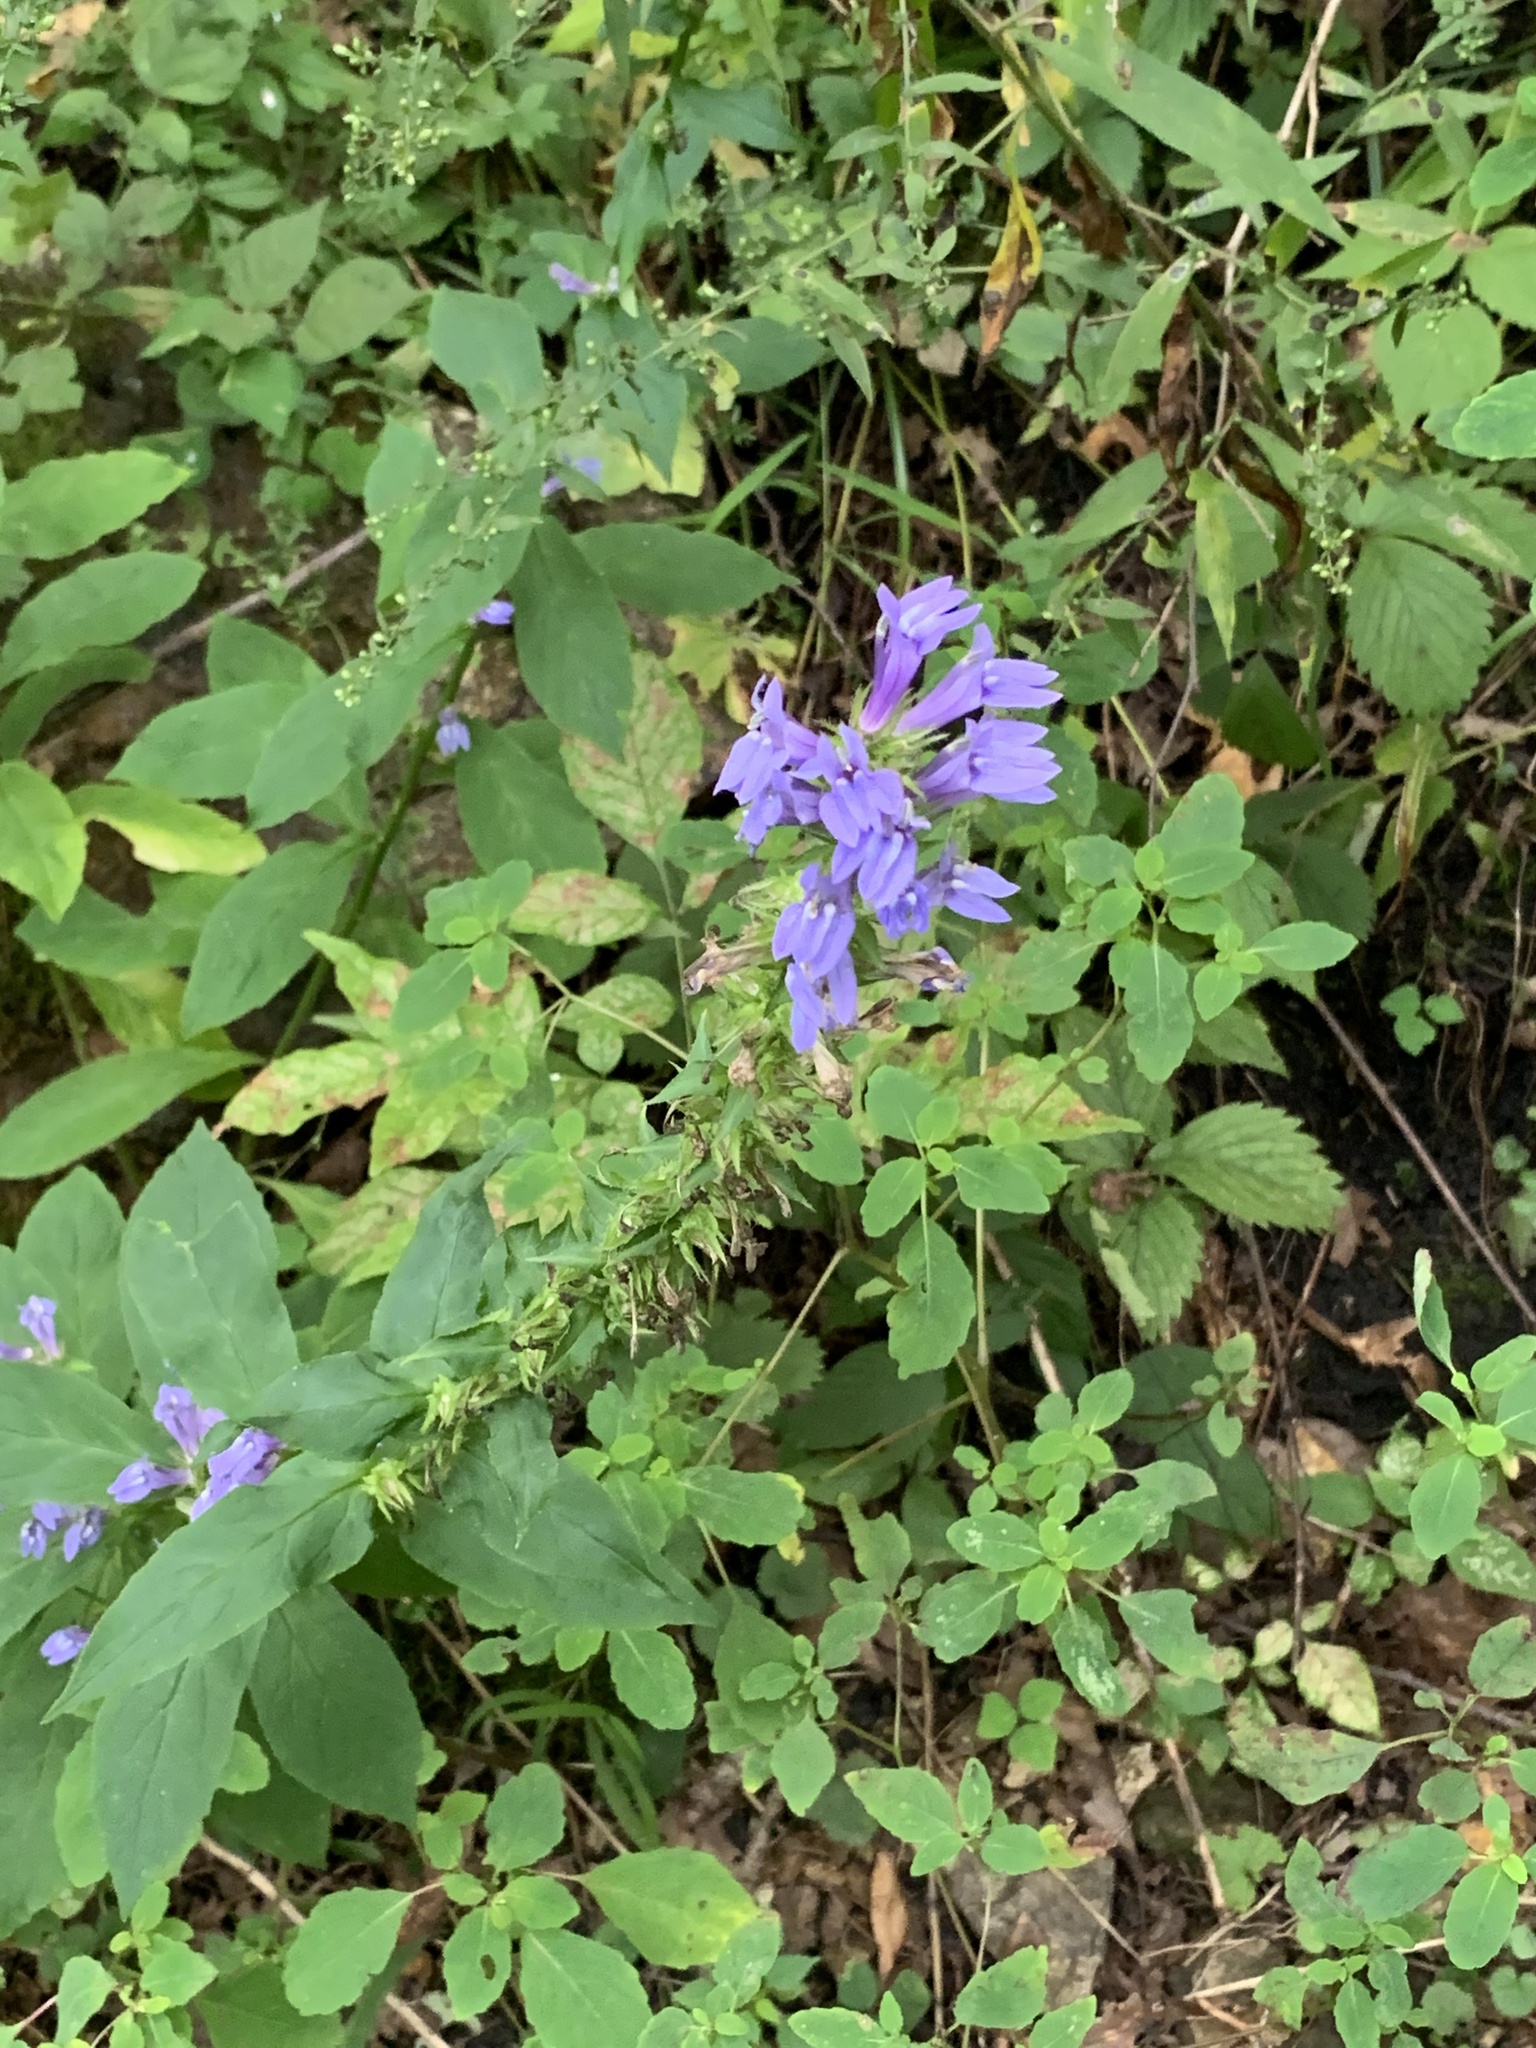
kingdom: Plantae
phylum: Tracheophyta
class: Magnoliopsida
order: Asterales
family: Campanulaceae
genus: Lobelia
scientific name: Lobelia siphilitica
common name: Great lobelia
